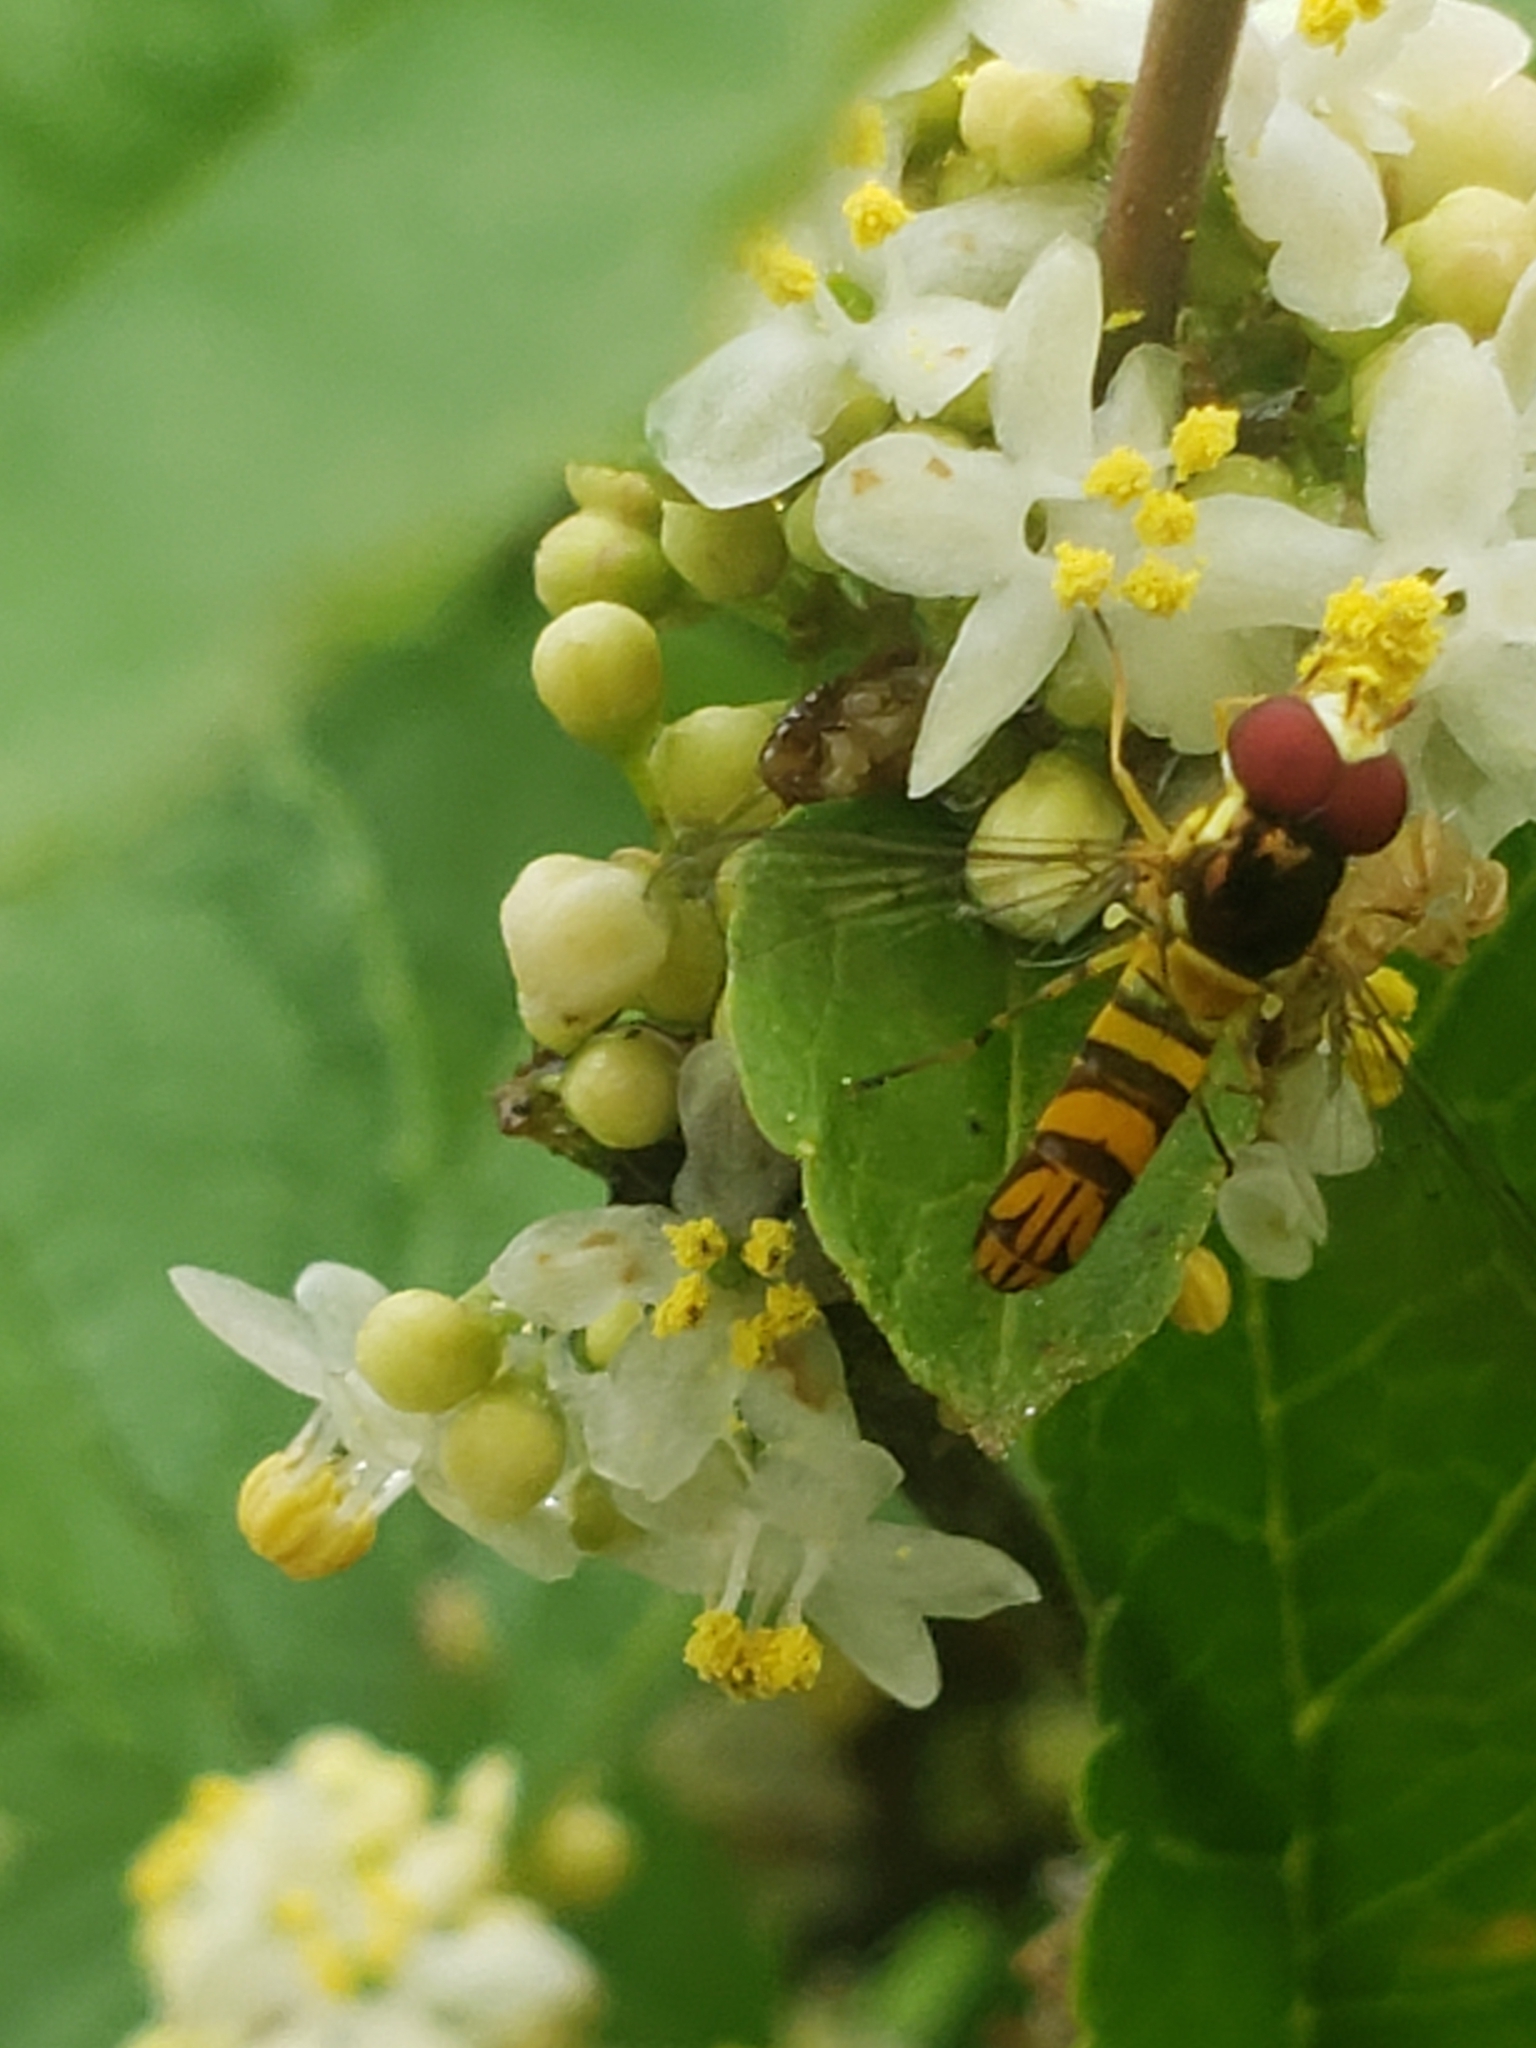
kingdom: Animalia
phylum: Arthropoda
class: Insecta
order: Diptera
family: Syrphidae
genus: Allograpta
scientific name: Allograpta obliqua
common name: Common oblique syrphid
